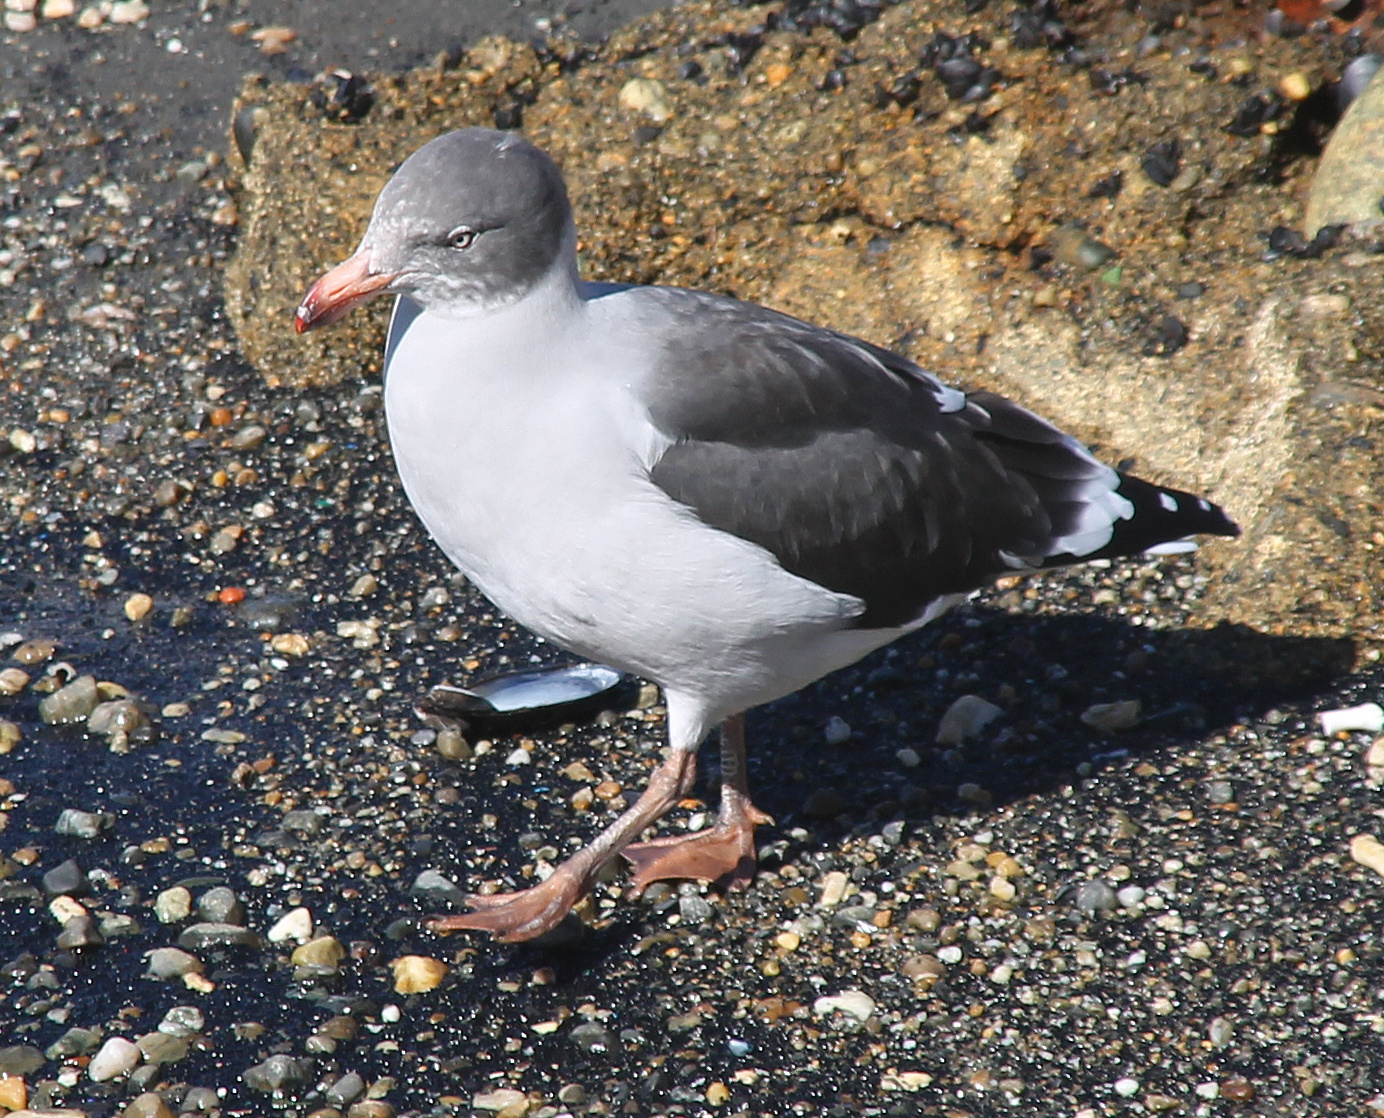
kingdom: Animalia
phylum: Chordata
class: Aves
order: Charadriiformes
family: Laridae
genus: Leucophaeus
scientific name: Leucophaeus scoresbii
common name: Dolphin gull
